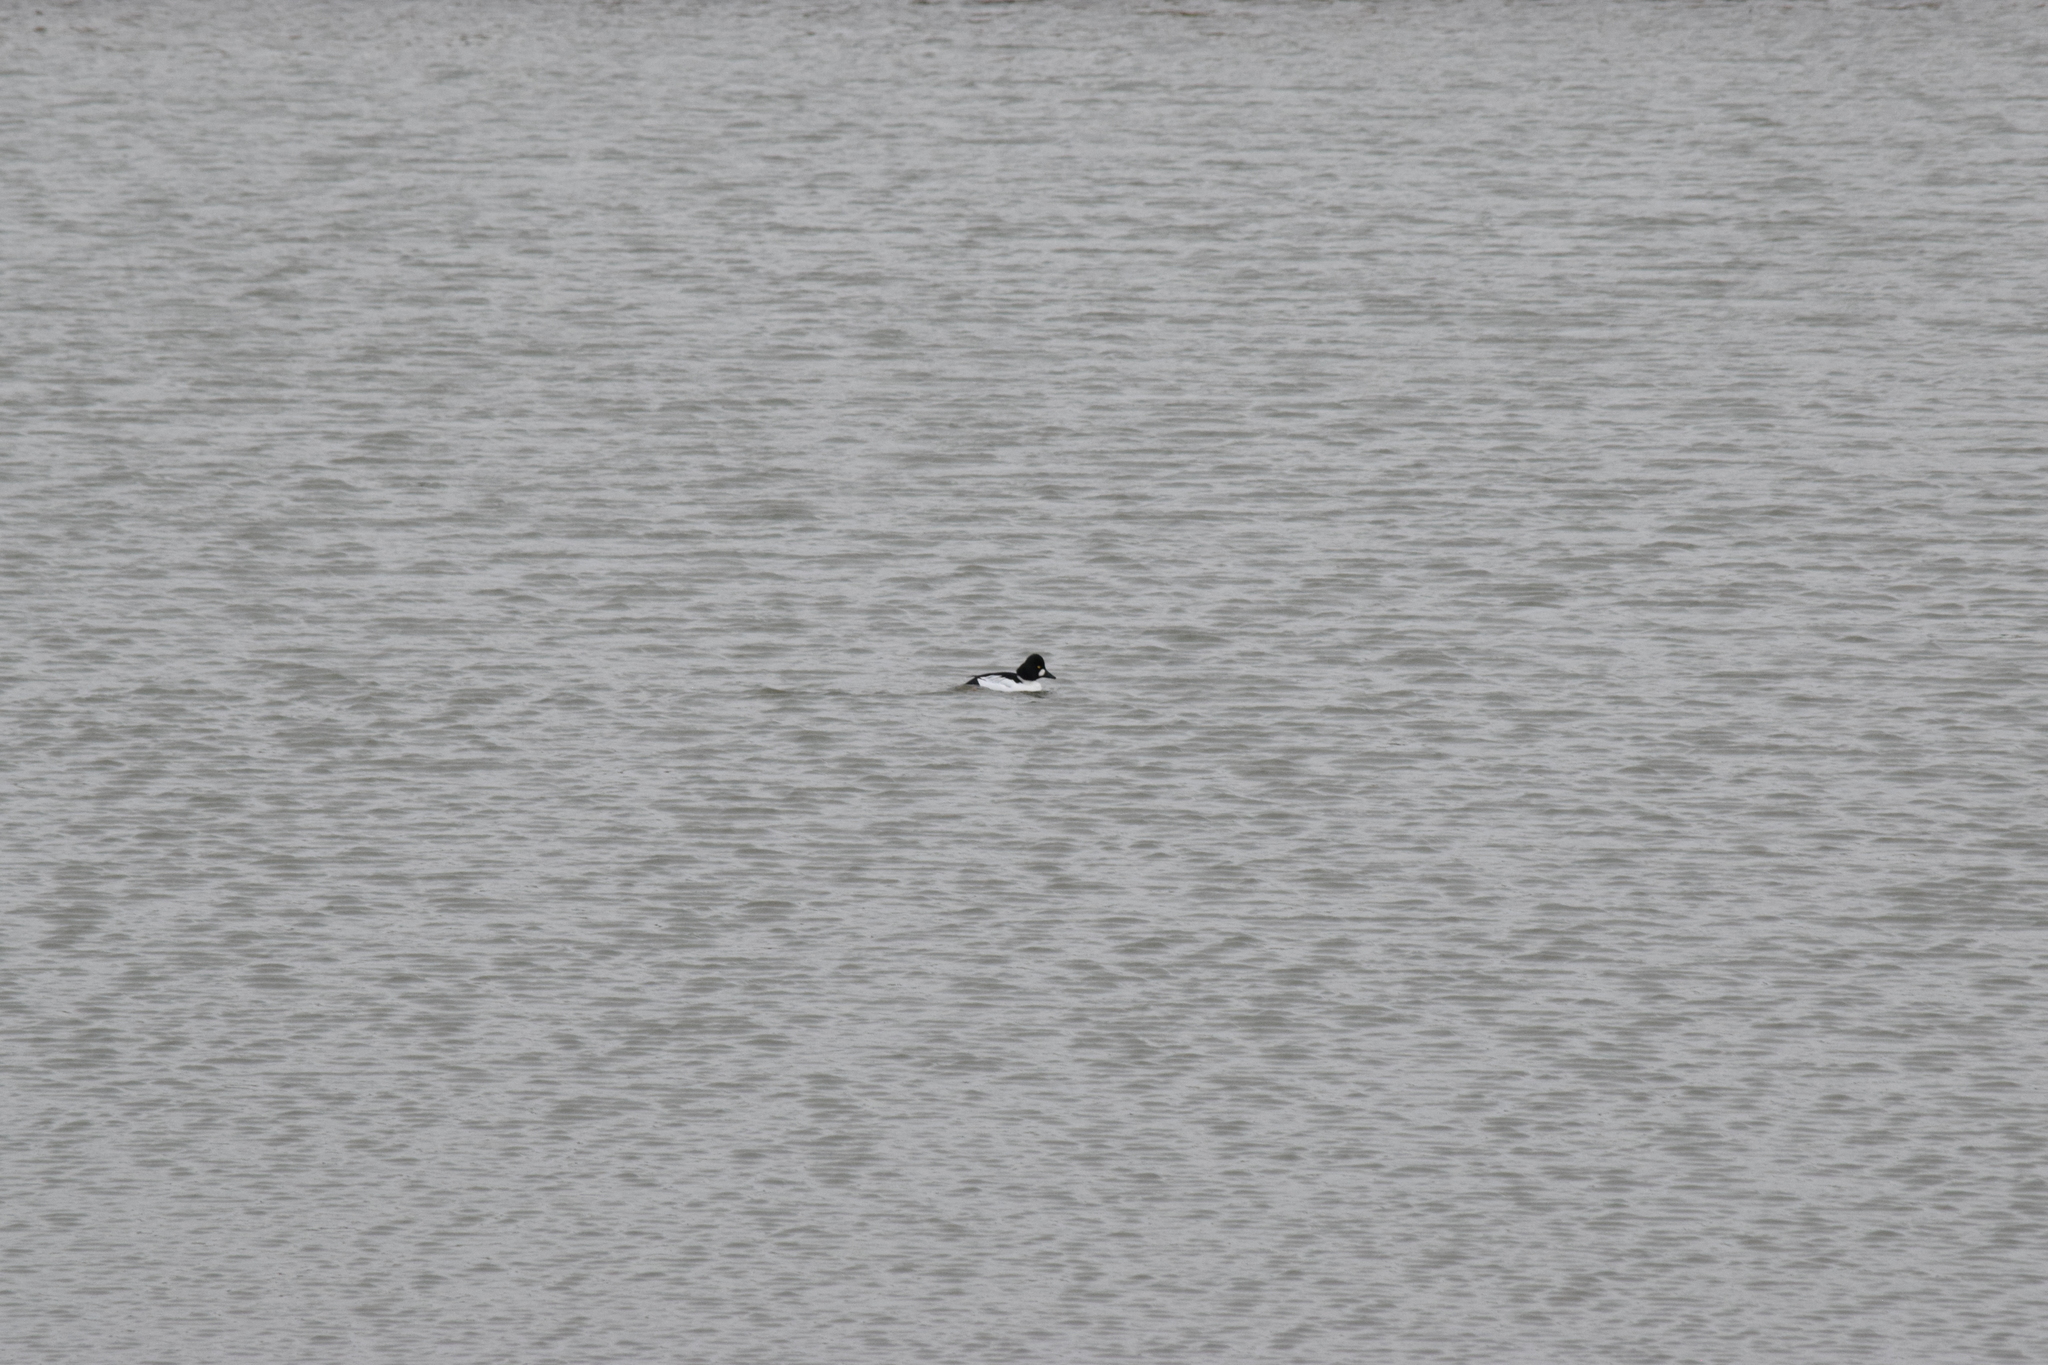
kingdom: Animalia
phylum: Chordata
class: Aves
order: Anseriformes
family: Anatidae
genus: Bucephala
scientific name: Bucephala clangula
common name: Common goldeneye
